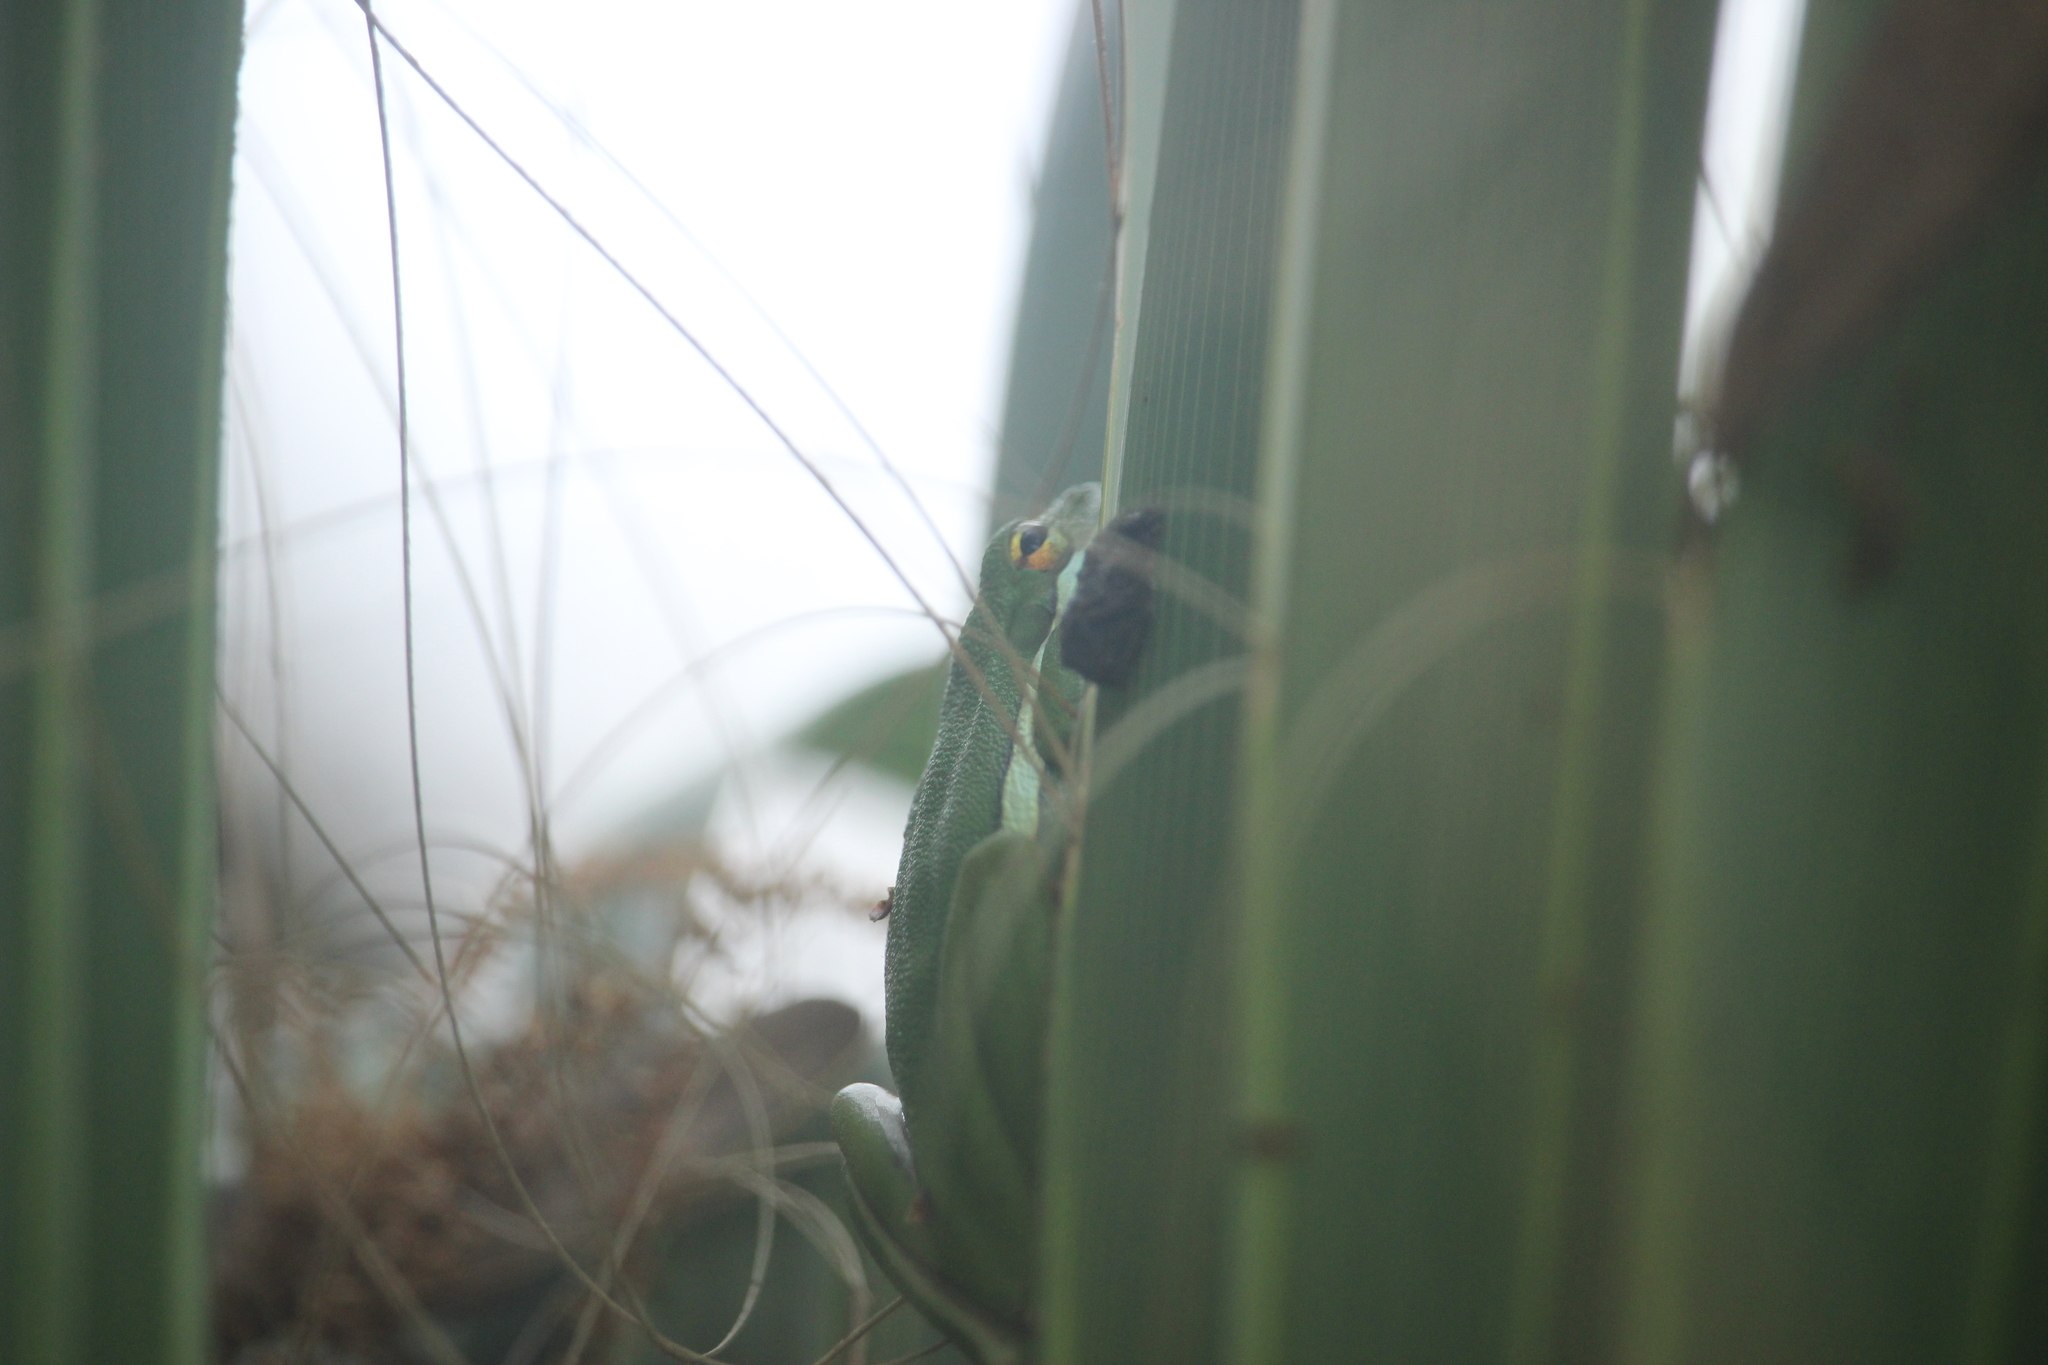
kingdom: Animalia
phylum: Chordata
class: Amphibia
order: Anura
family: Hylidae
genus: Dryophytes
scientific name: Dryophytes cinereus
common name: Green treefrog
